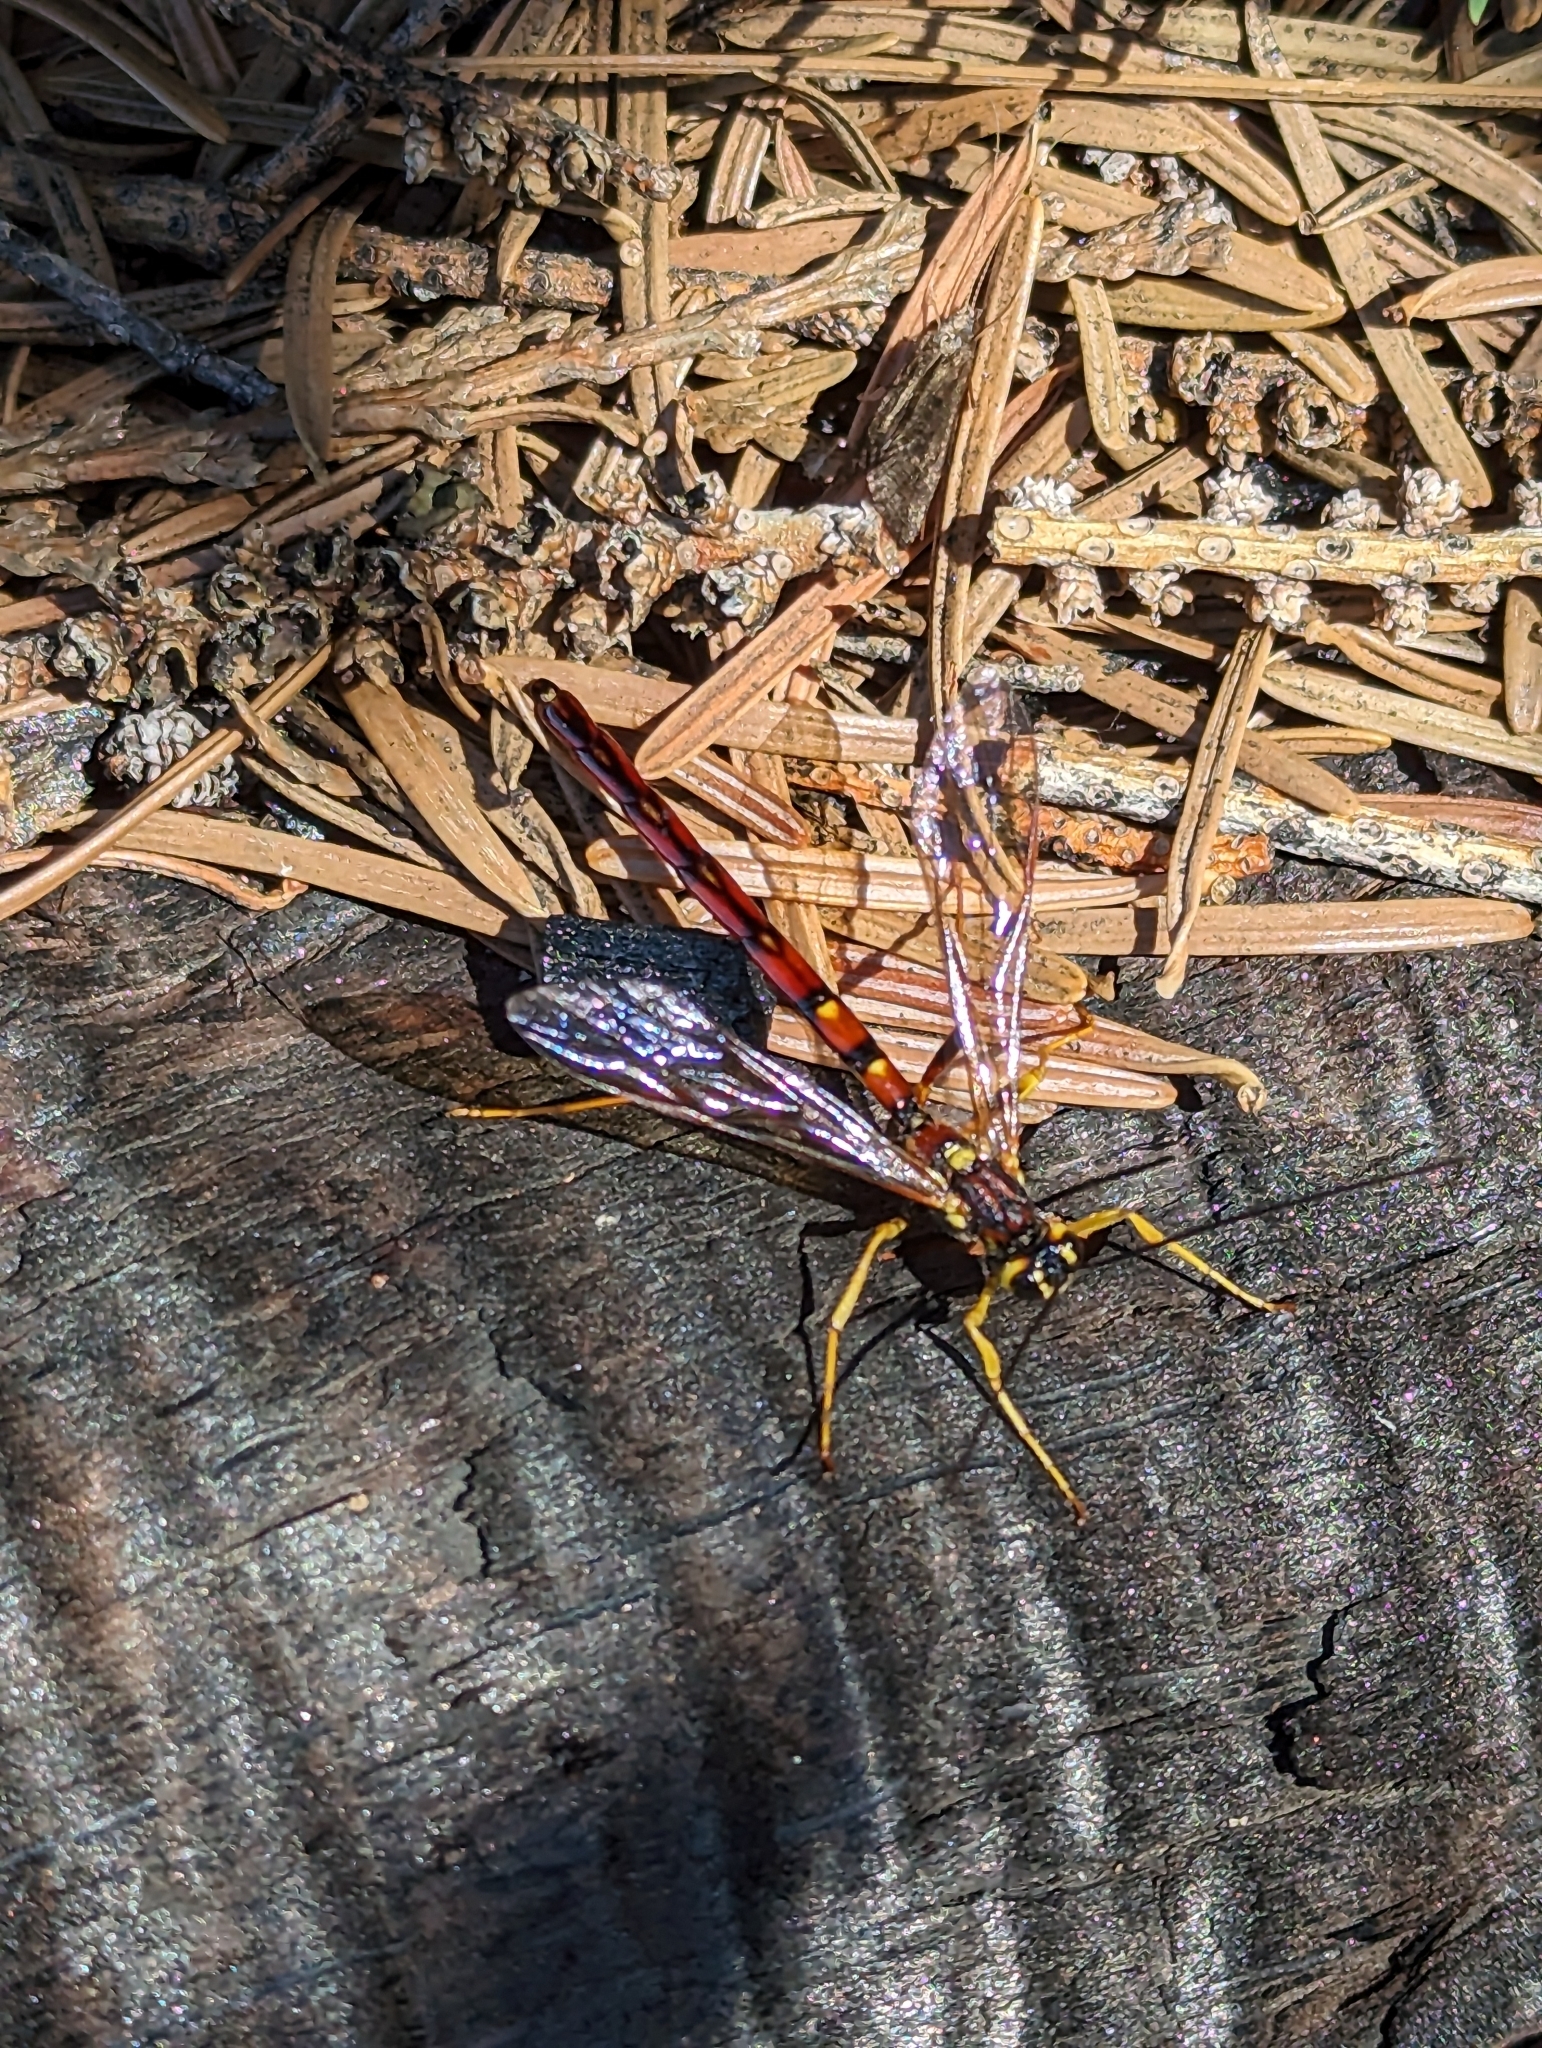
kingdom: Animalia
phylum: Arthropoda
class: Insecta
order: Hymenoptera
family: Ichneumonidae
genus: Megarhyssa
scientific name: Megarhyssa nortoni
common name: Norton's giant ichneumonid wasp
